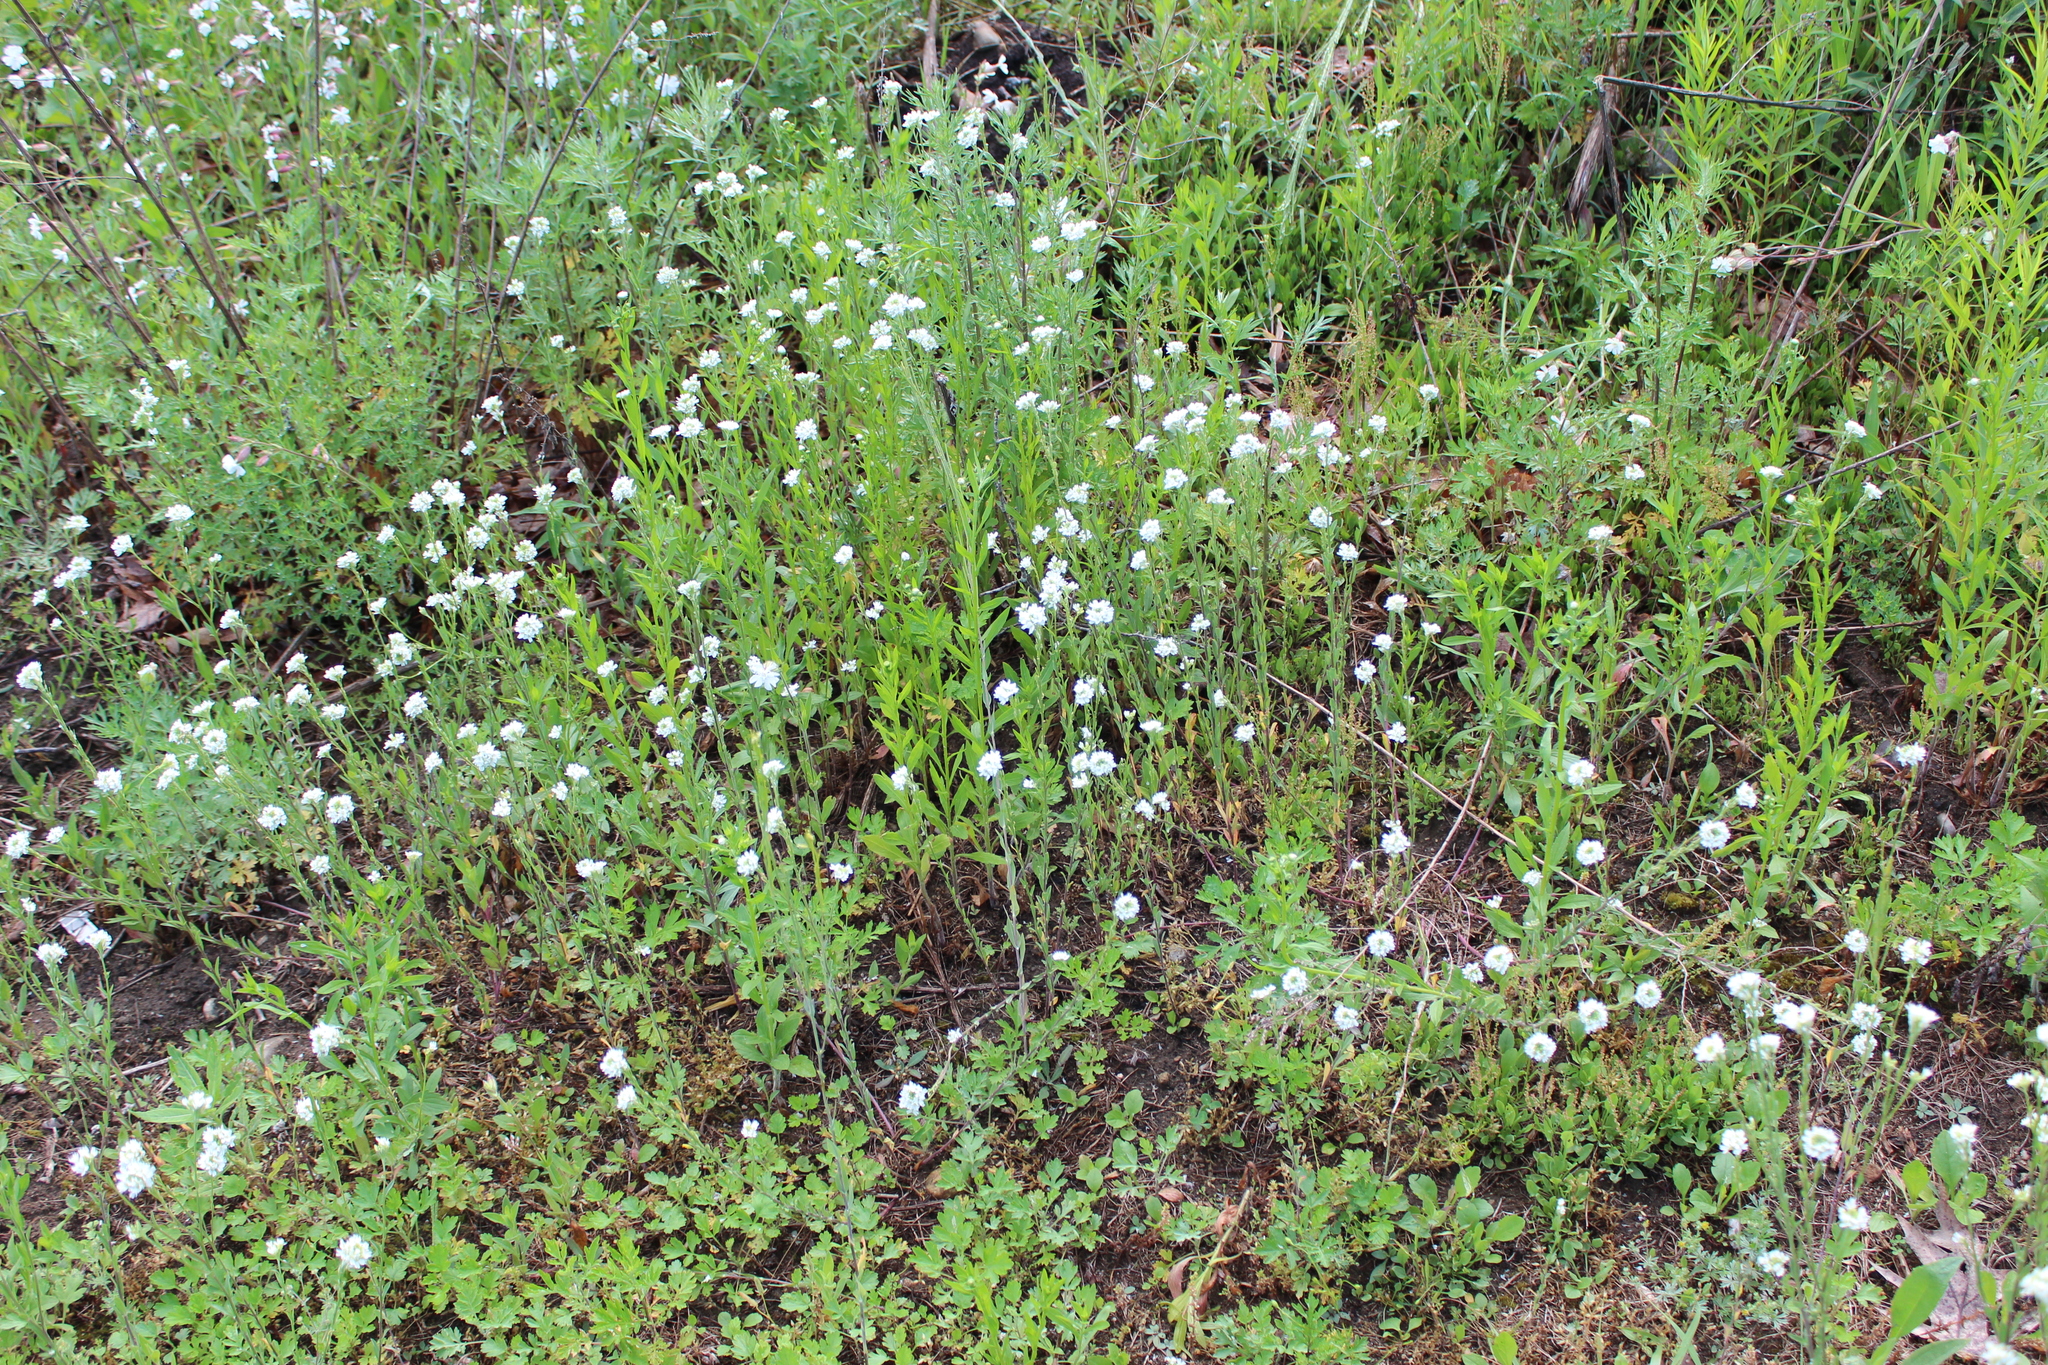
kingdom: Plantae
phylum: Tracheophyta
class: Magnoliopsida
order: Brassicales
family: Brassicaceae
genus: Berteroa
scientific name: Berteroa incana
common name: Hoary alison
